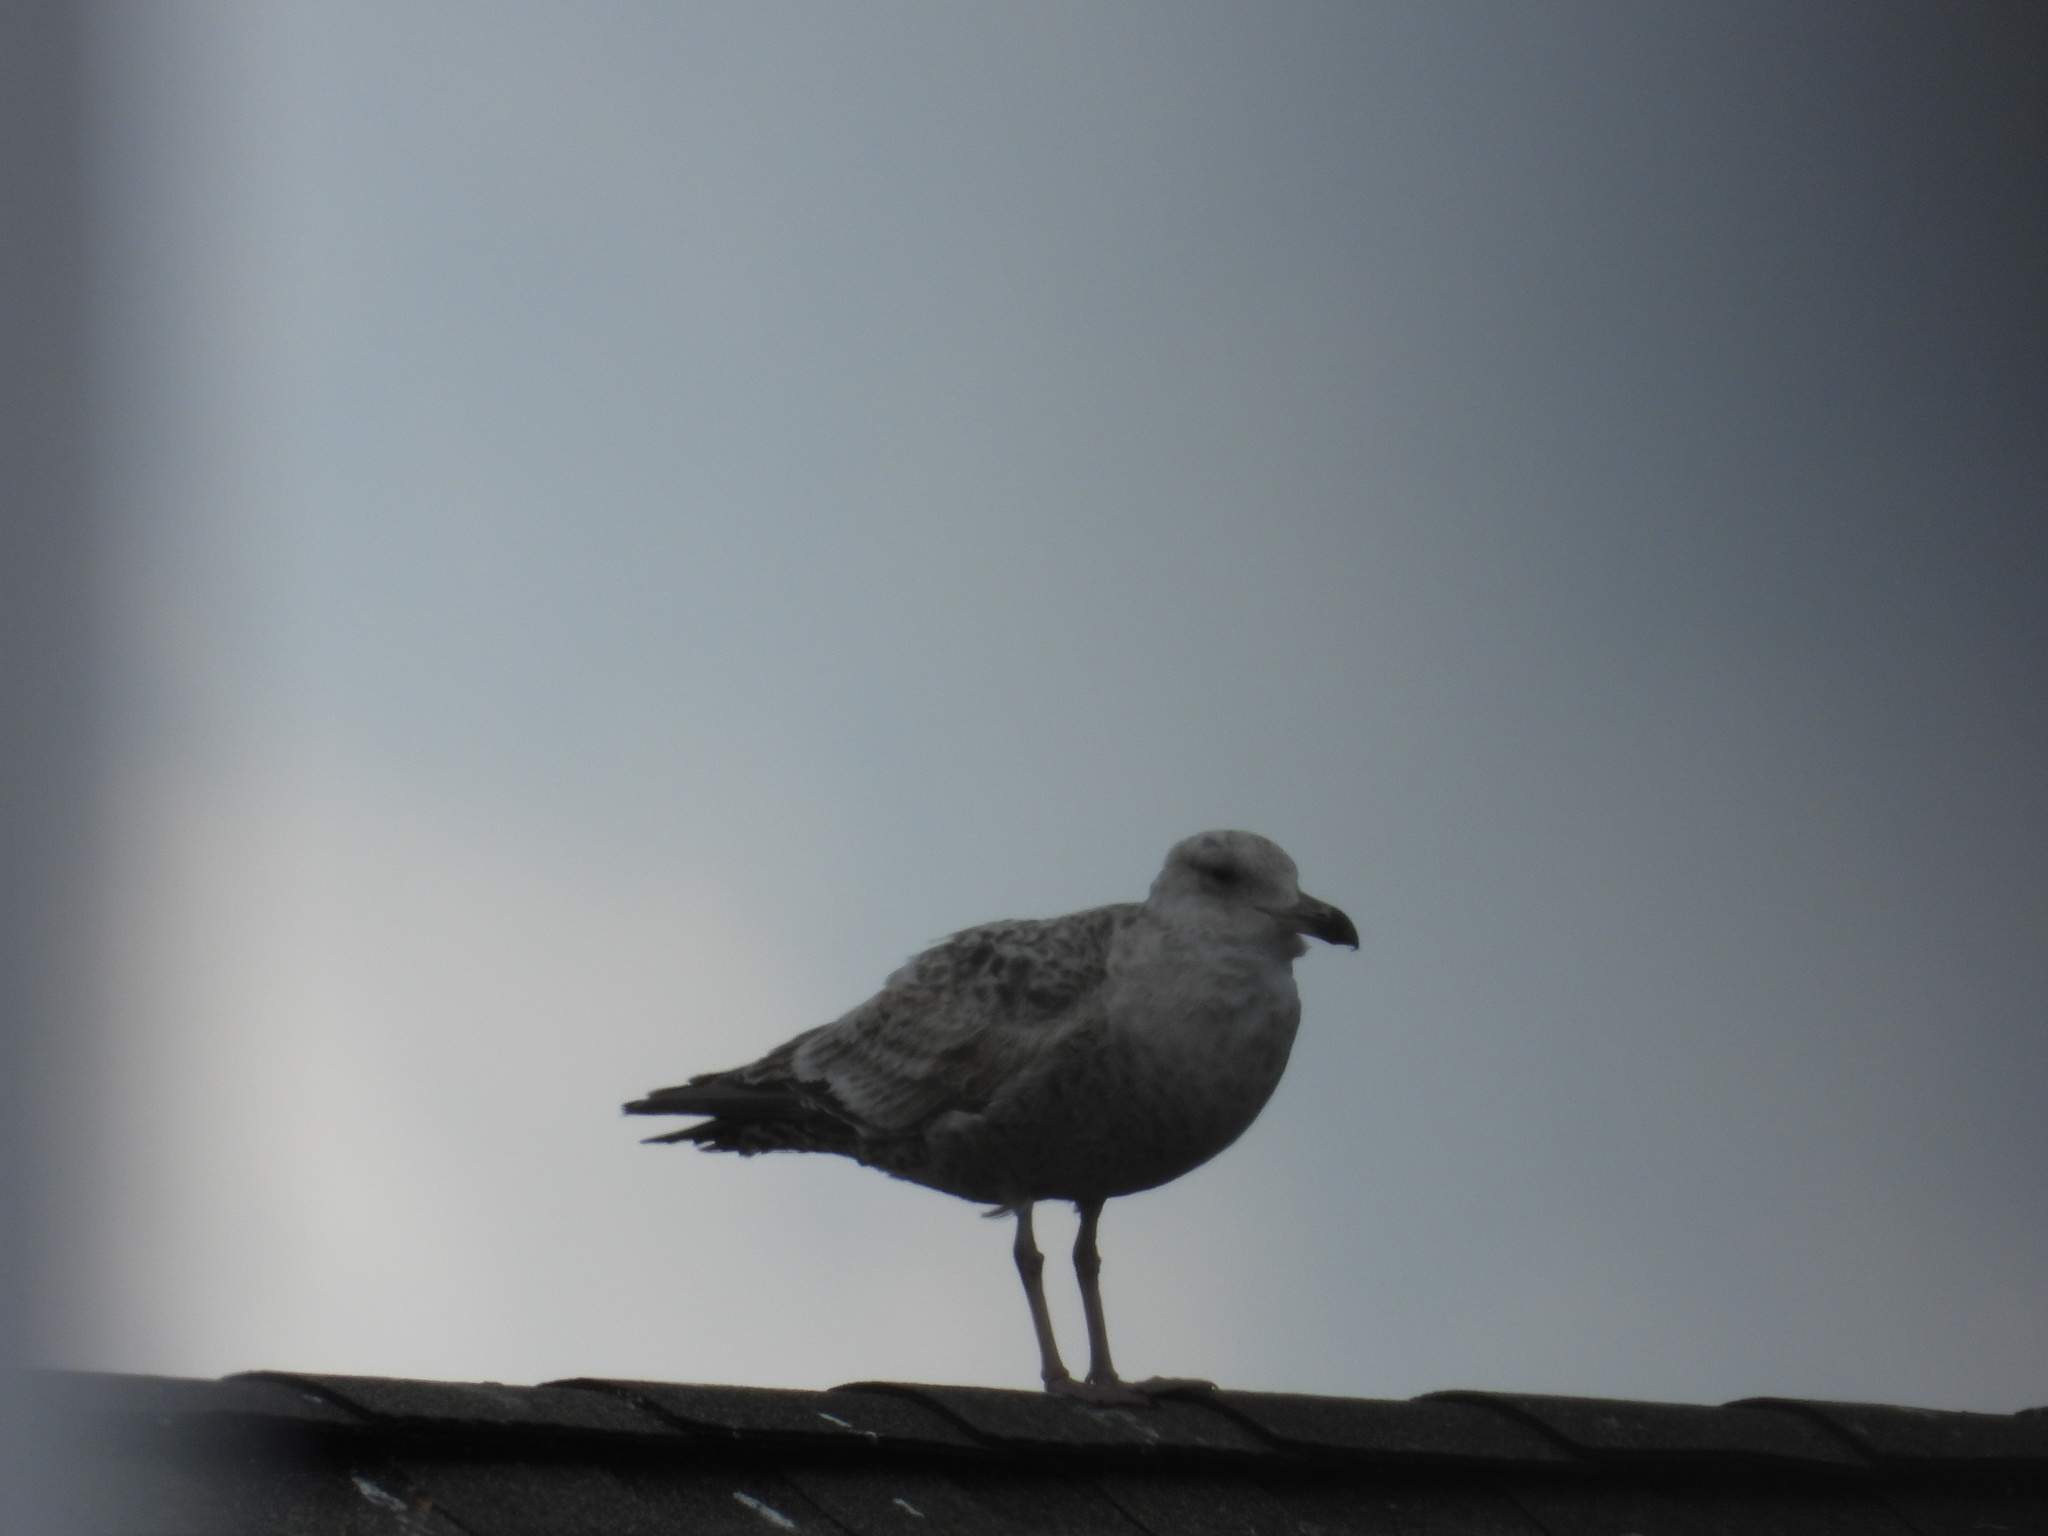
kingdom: Animalia
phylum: Chordata
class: Aves
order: Charadriiformes
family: Laridae
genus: Larus
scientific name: Larus argentatus
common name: Herring gull
